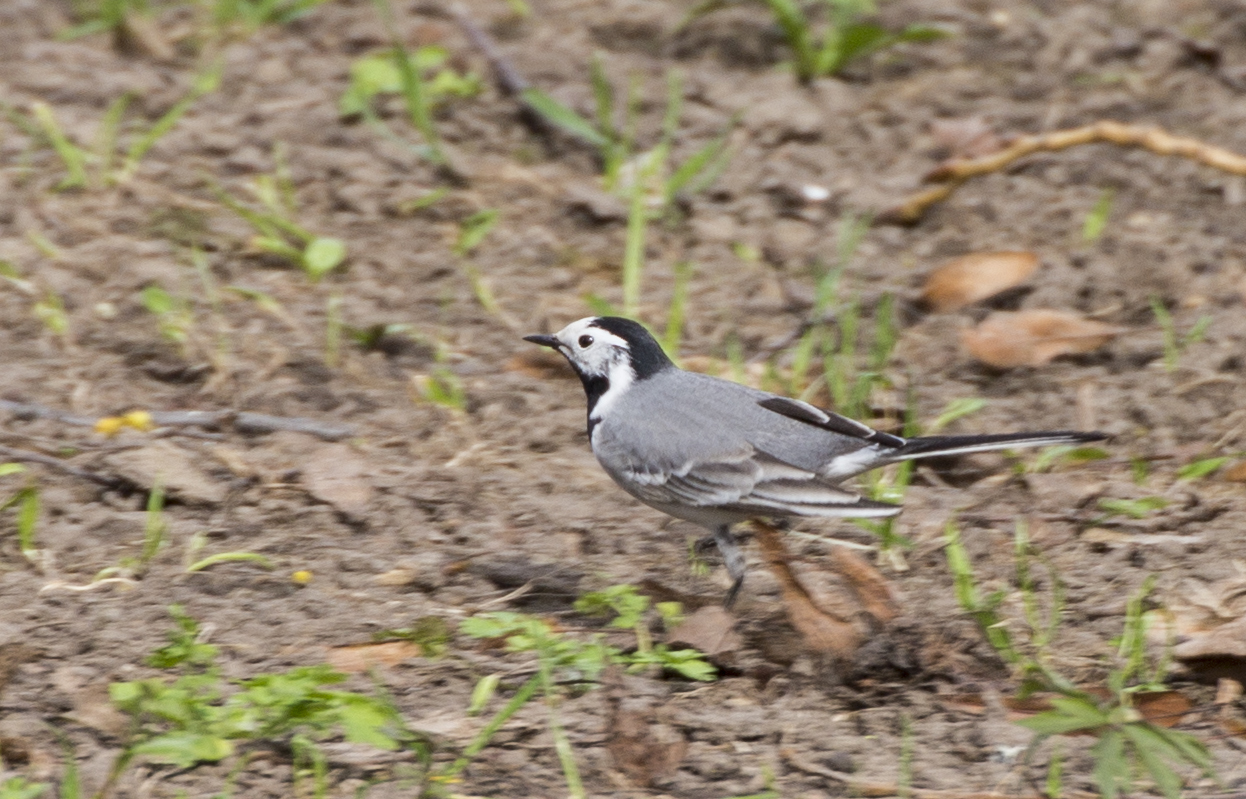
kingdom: Animalia
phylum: Chordata
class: Aves
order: Passeriformes
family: Motacillidae
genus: Motacilla
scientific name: Motacilla alba
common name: White wagtail
